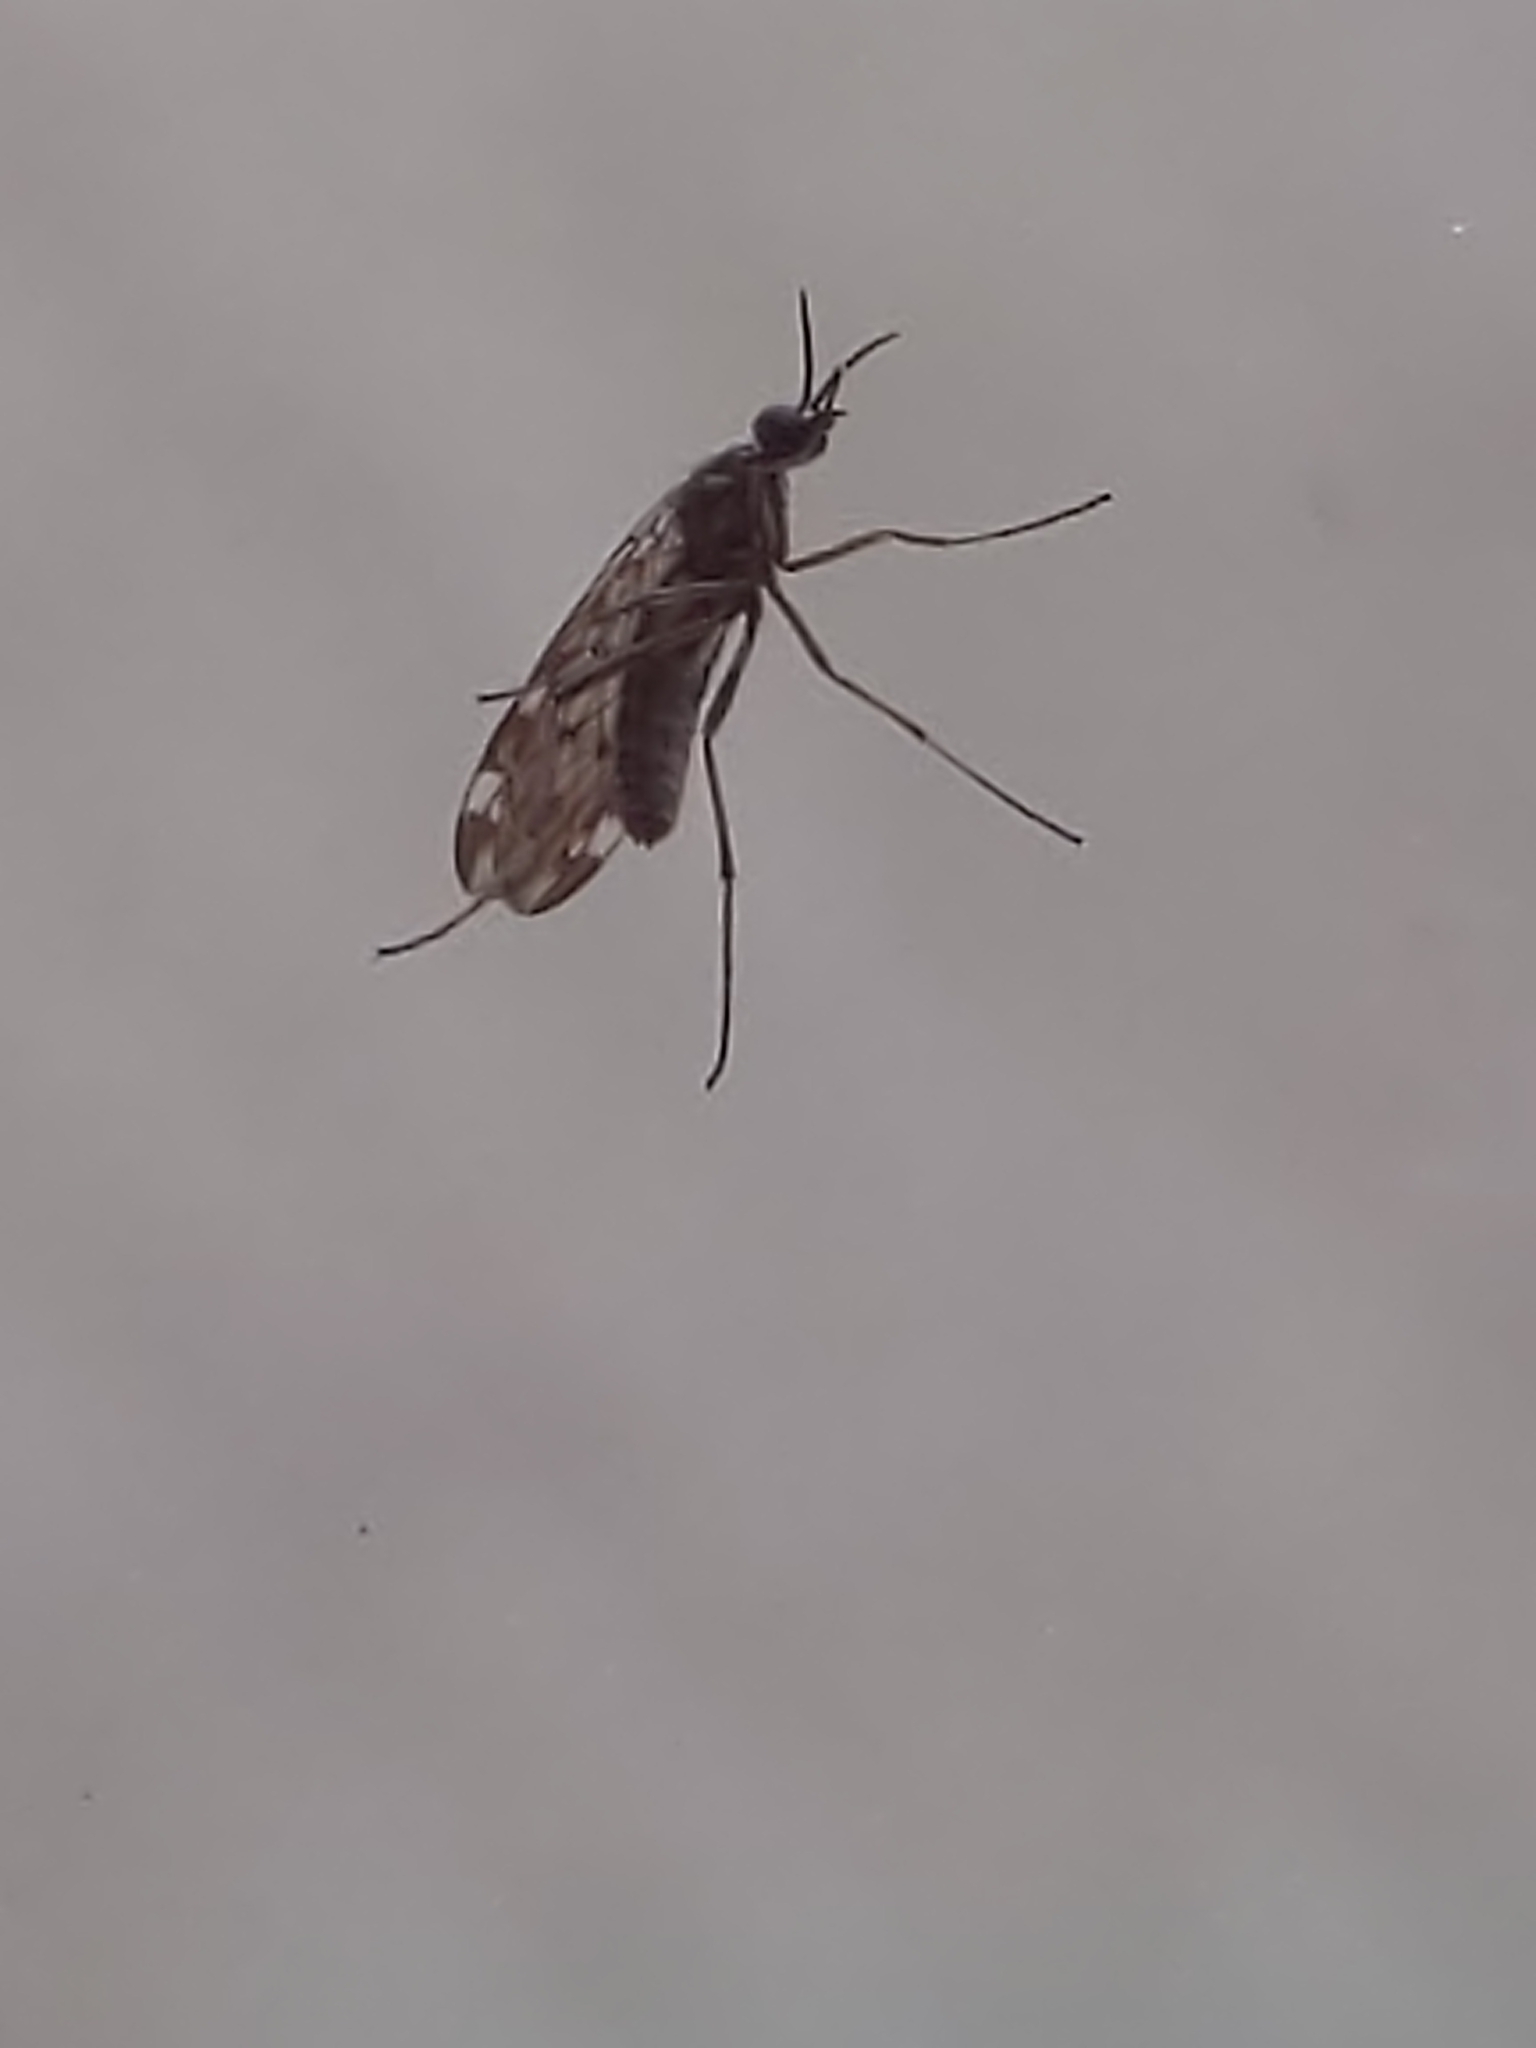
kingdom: Animalia
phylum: Arthropoda
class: Insecta
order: Diptera
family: Anisopodidae
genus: Sylvicola
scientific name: Sylvicola alternata
